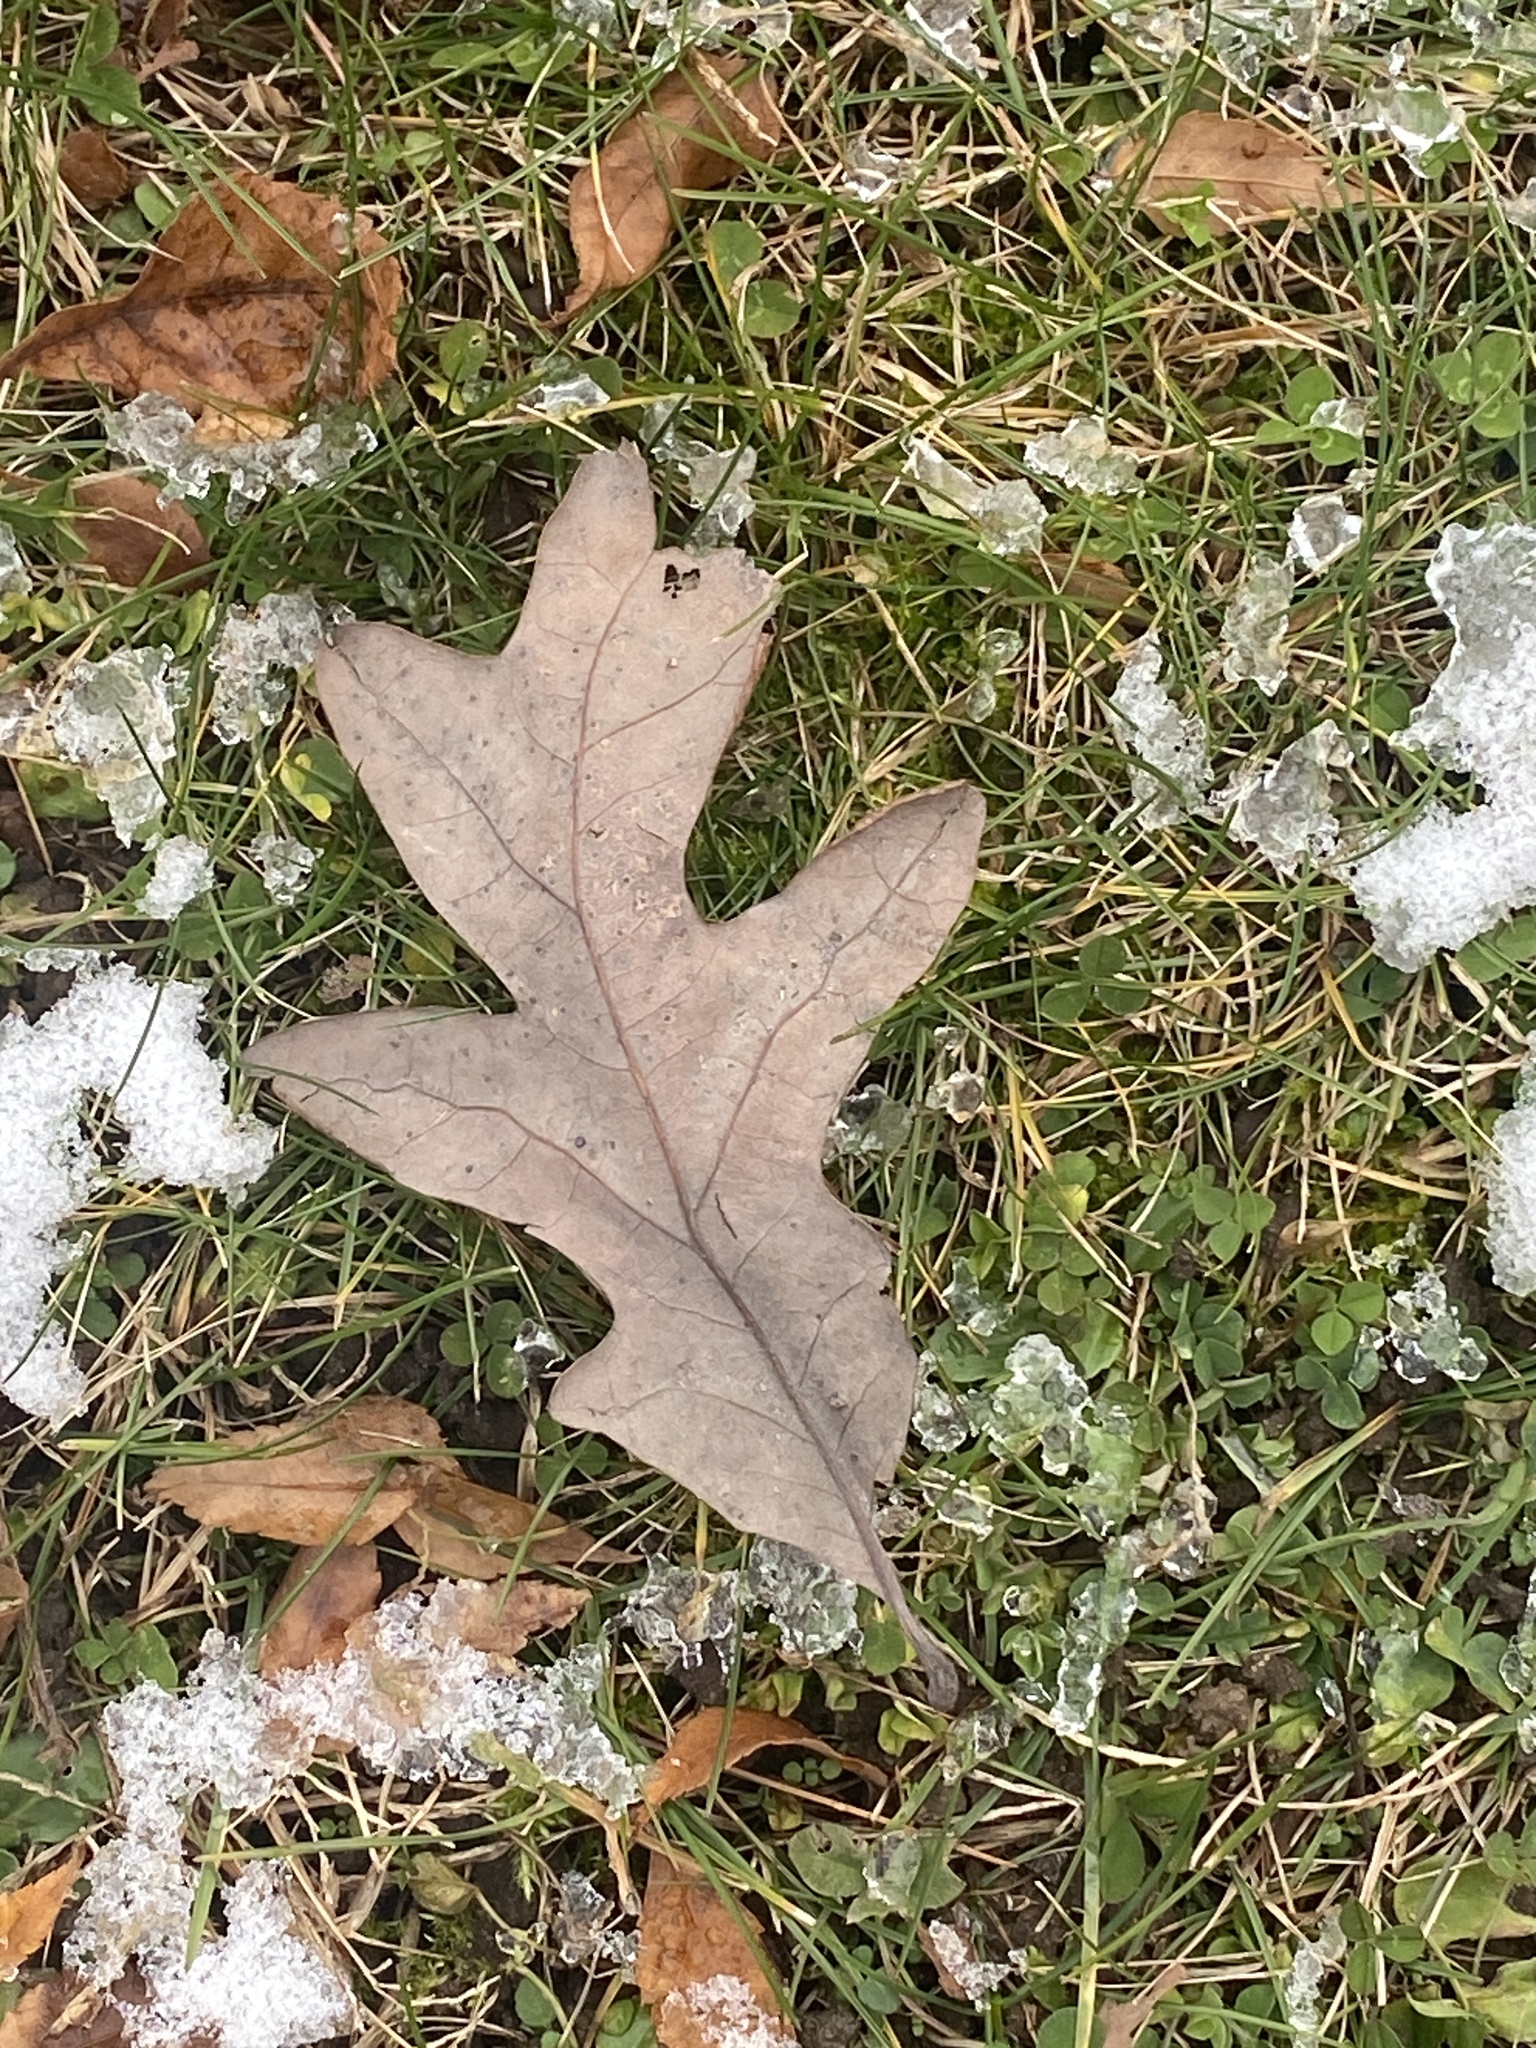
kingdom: Plantae
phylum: Tracheophyta
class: Magnoliopsida
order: Fagales
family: Fagaceae
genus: Quercus
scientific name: Quercus alba
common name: White oak
